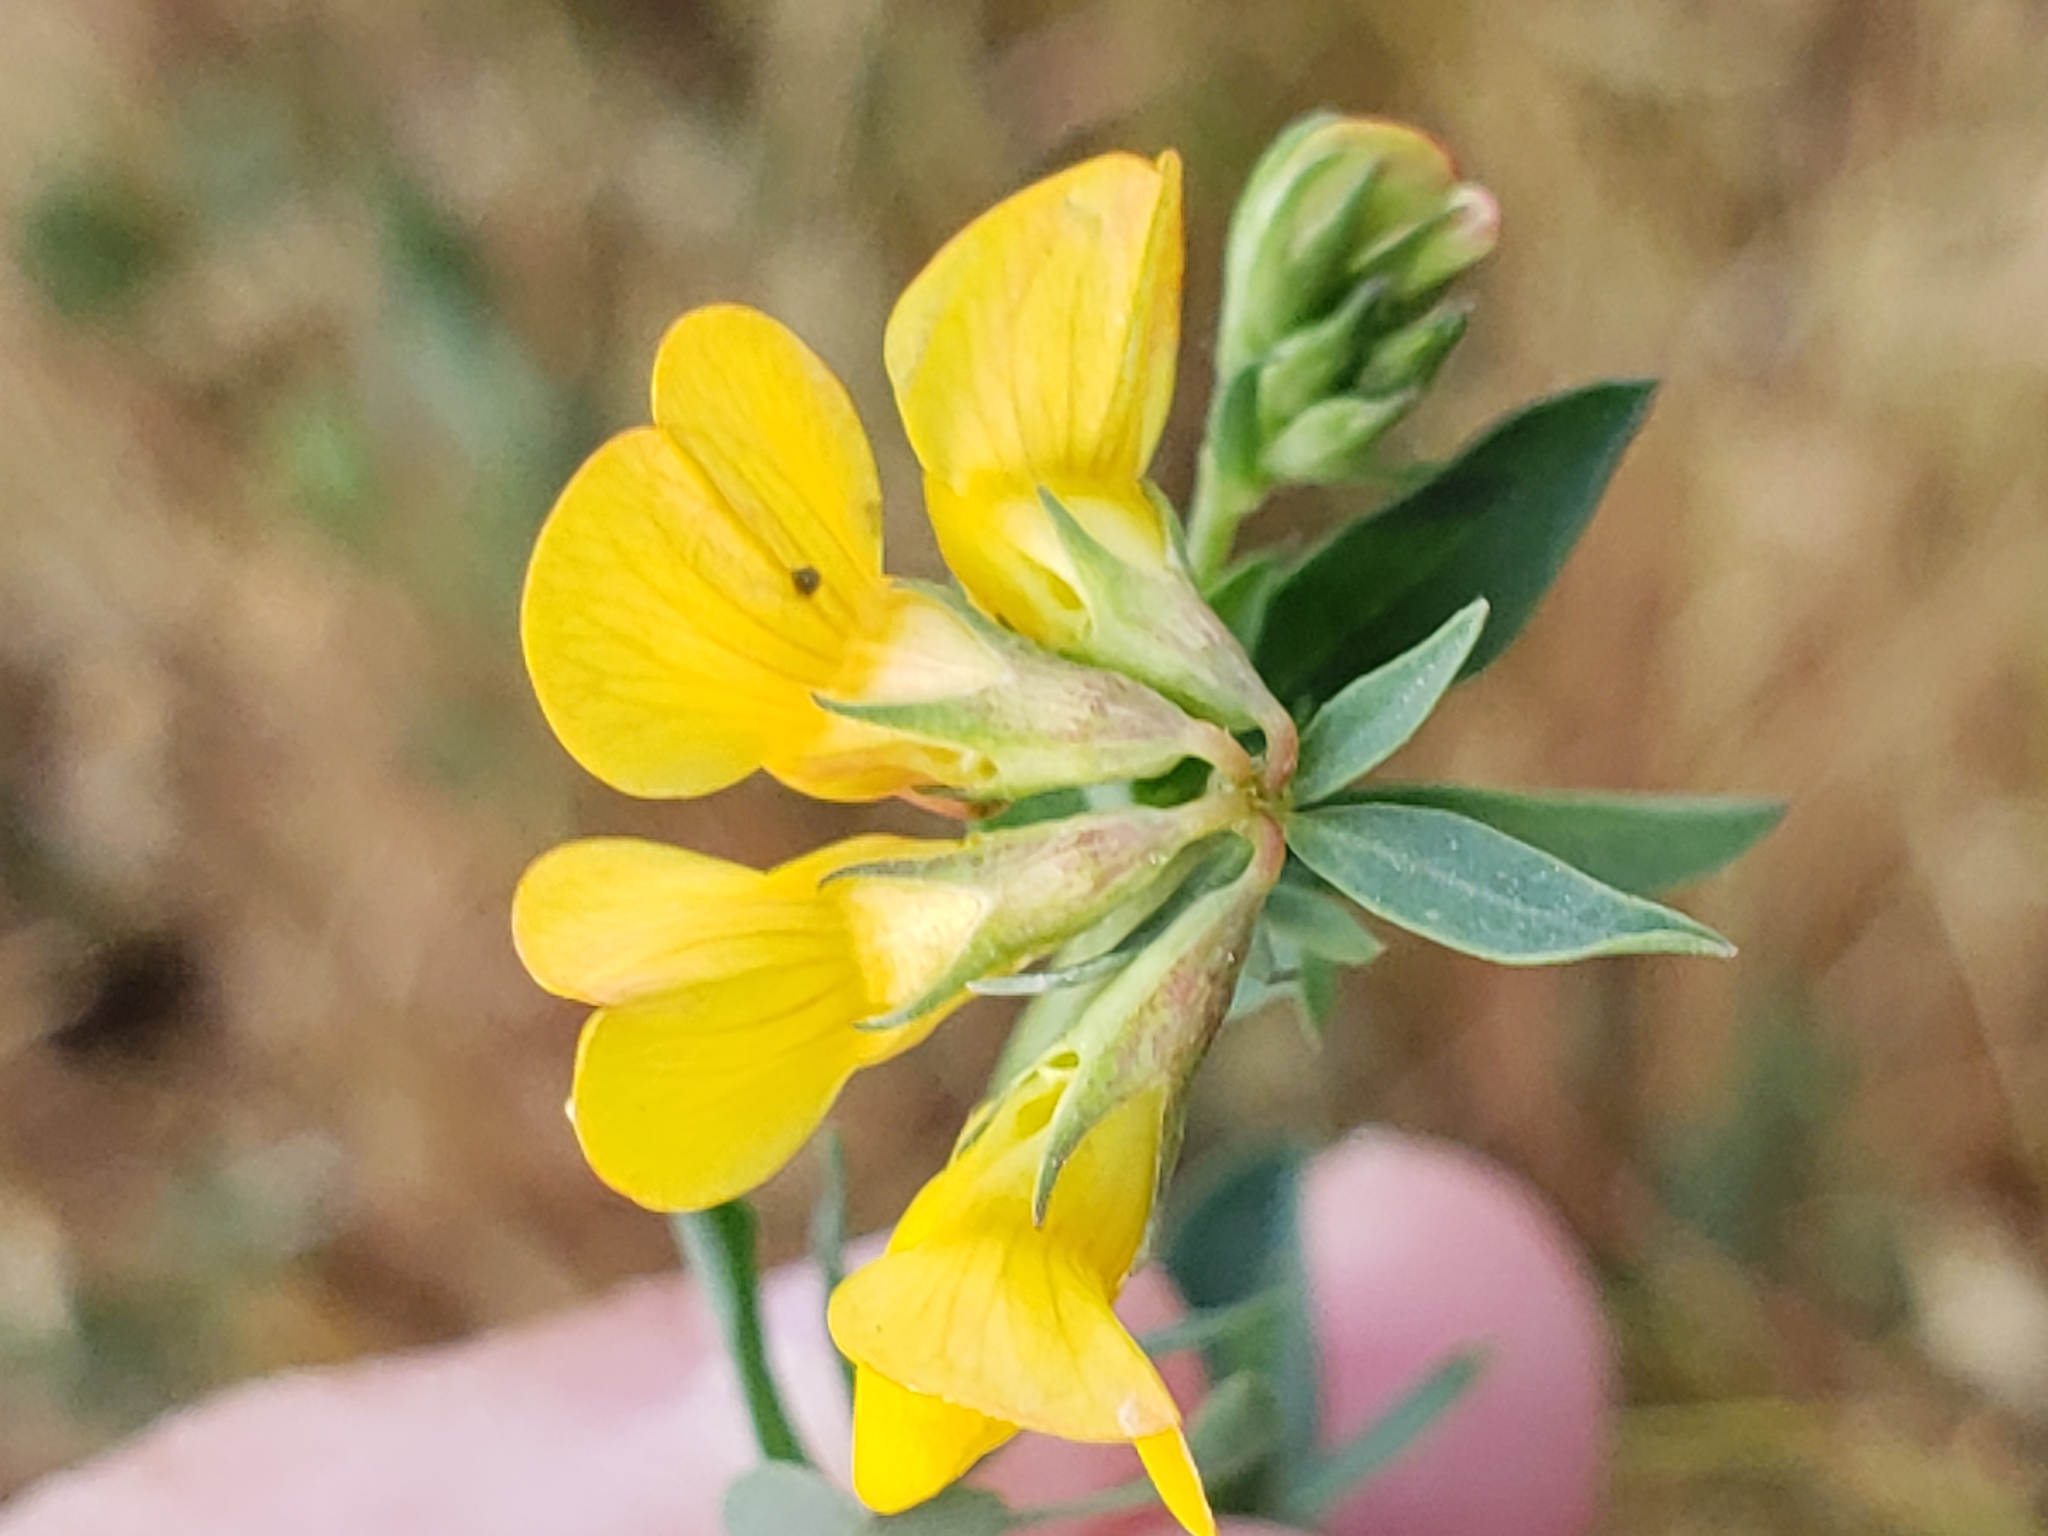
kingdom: Plantae
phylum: Tracheophyta
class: Magnoliopsida
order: Fabales
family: Fabaceae
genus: Lotus
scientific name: Lotus corniculatus
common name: Common bird's-foot-trefoil
